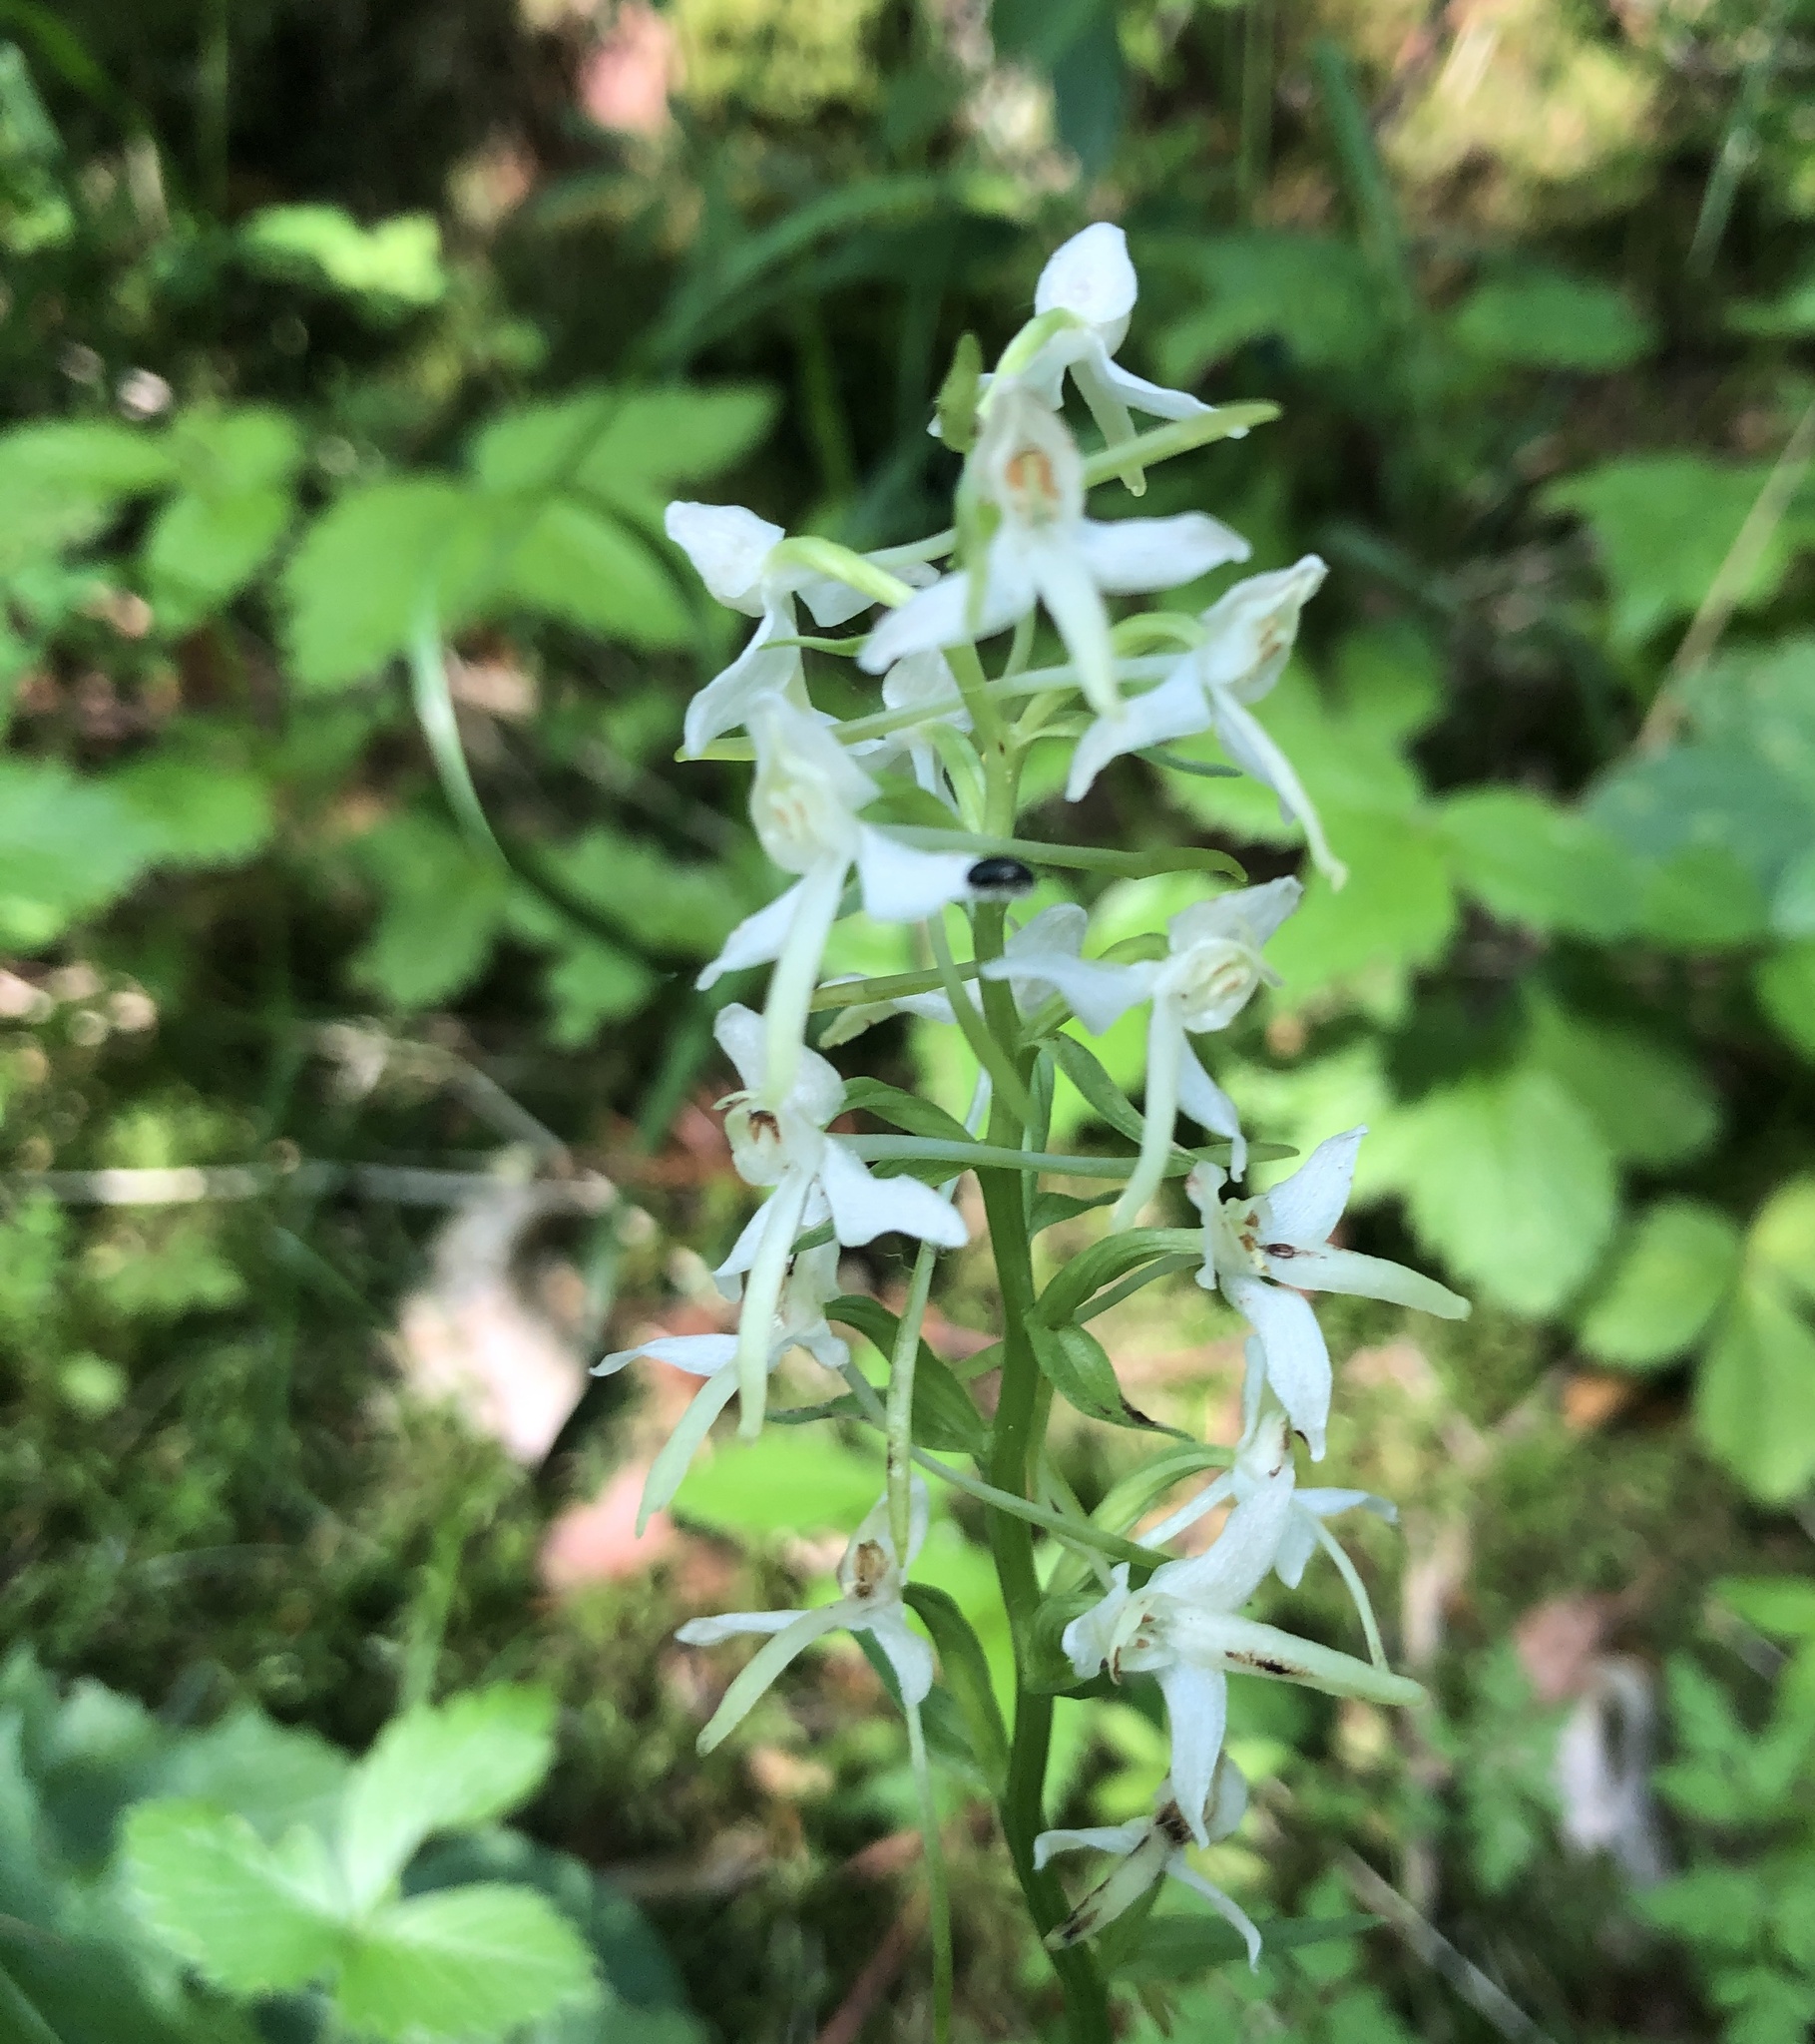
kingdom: Plantae
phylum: Tracheophyta
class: Liliopsida
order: Asparagales
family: Orchidaceae
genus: Platanthera
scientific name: Platanthera bifolia
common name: Lesser butterfly-orchid
